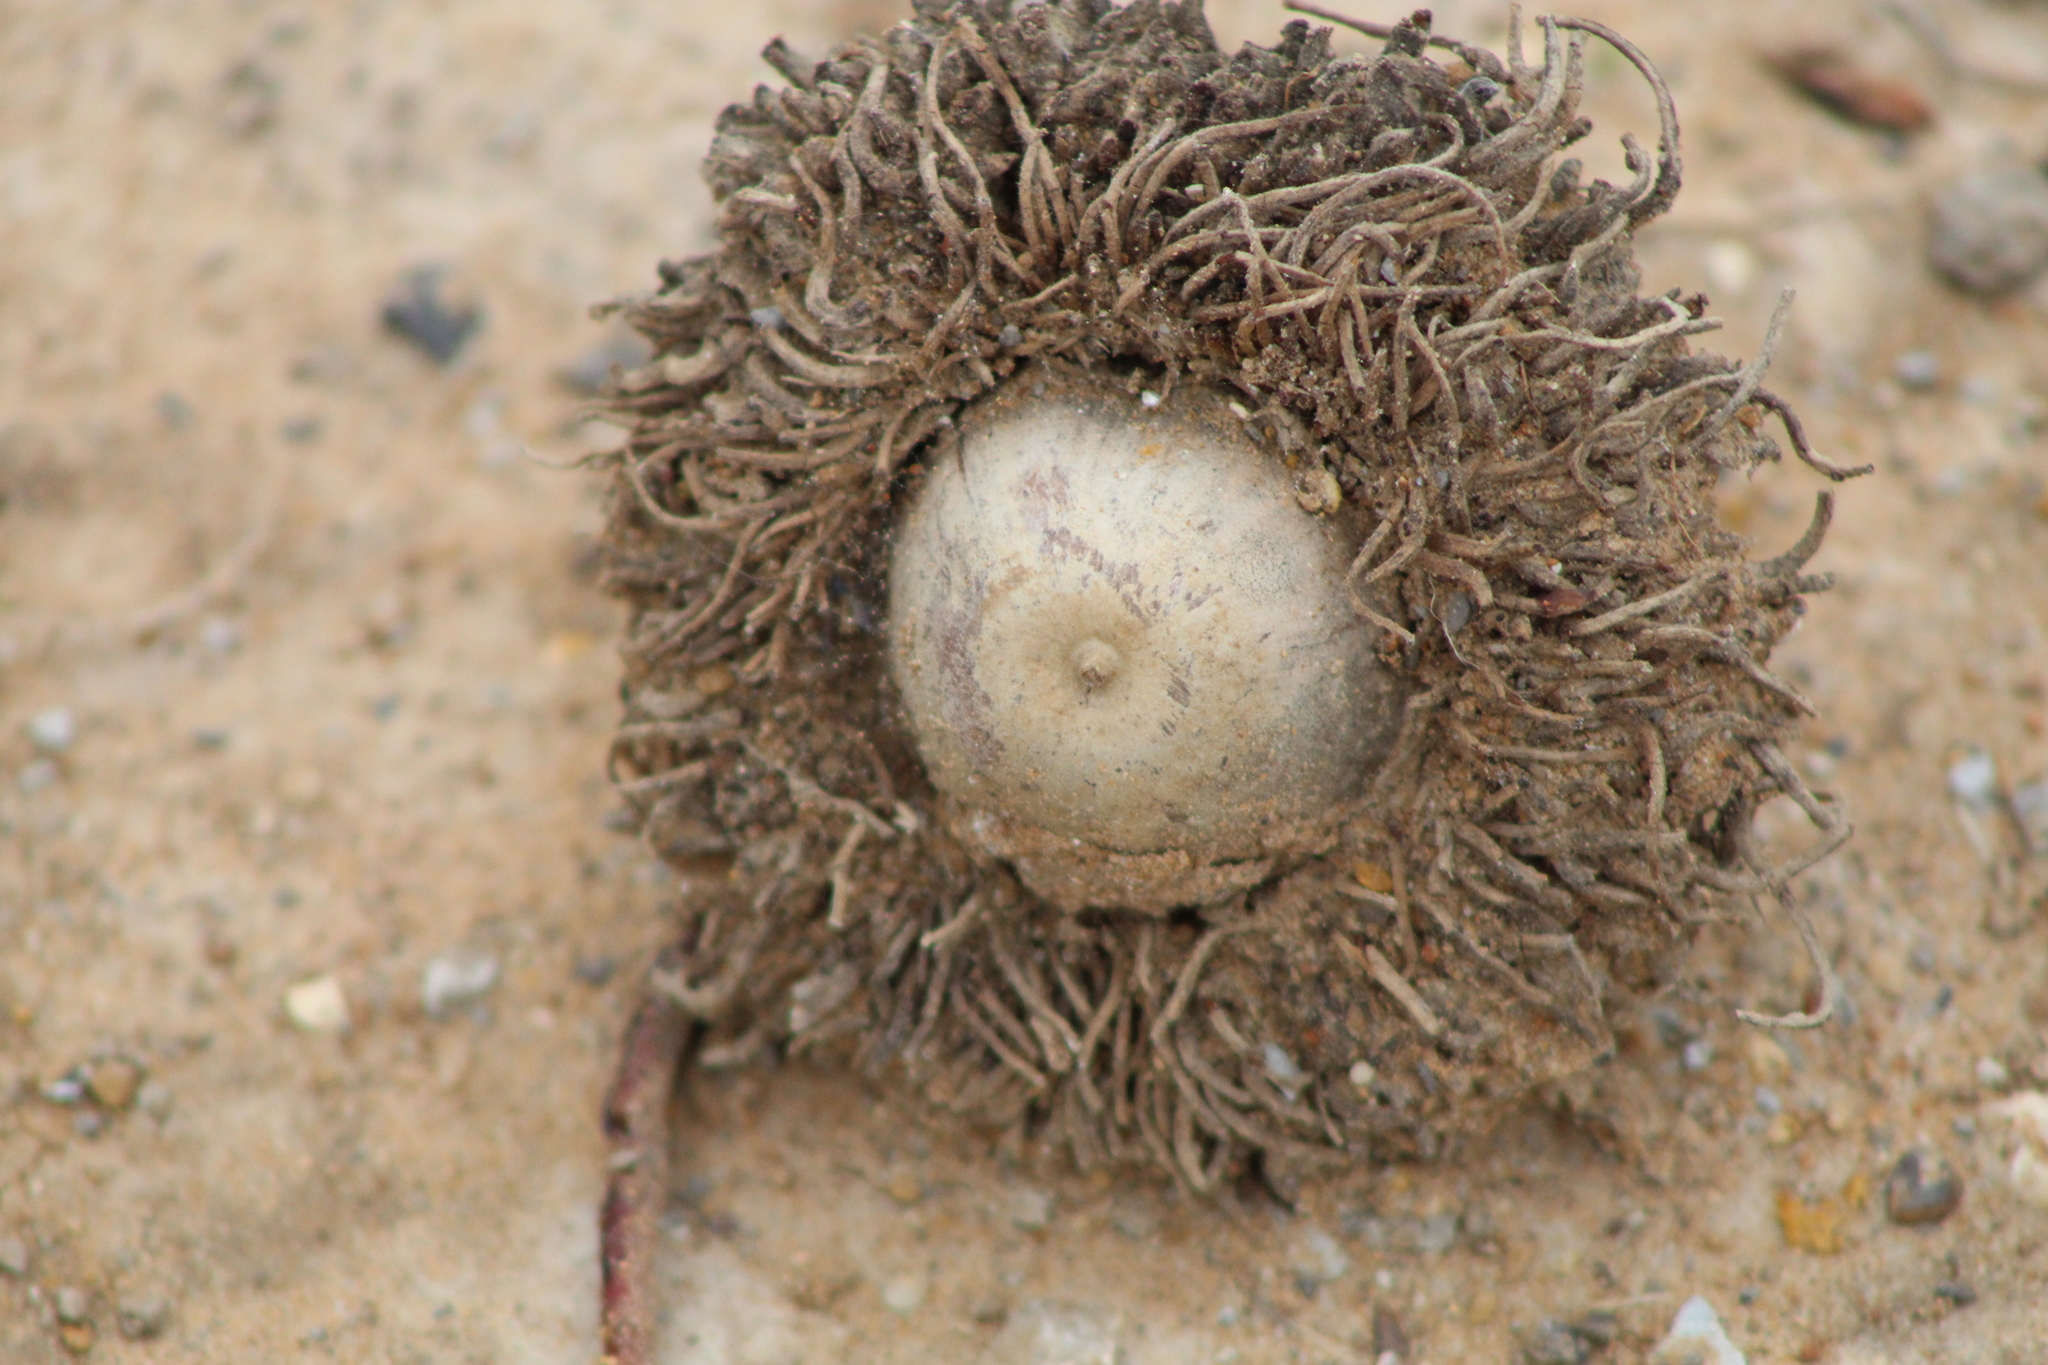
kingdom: Plantae
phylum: Tracheophyta
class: Magnoliopsida
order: Fagales
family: Fagaceae
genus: Quercus
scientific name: Quercus macrocarpa
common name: Bur oak
